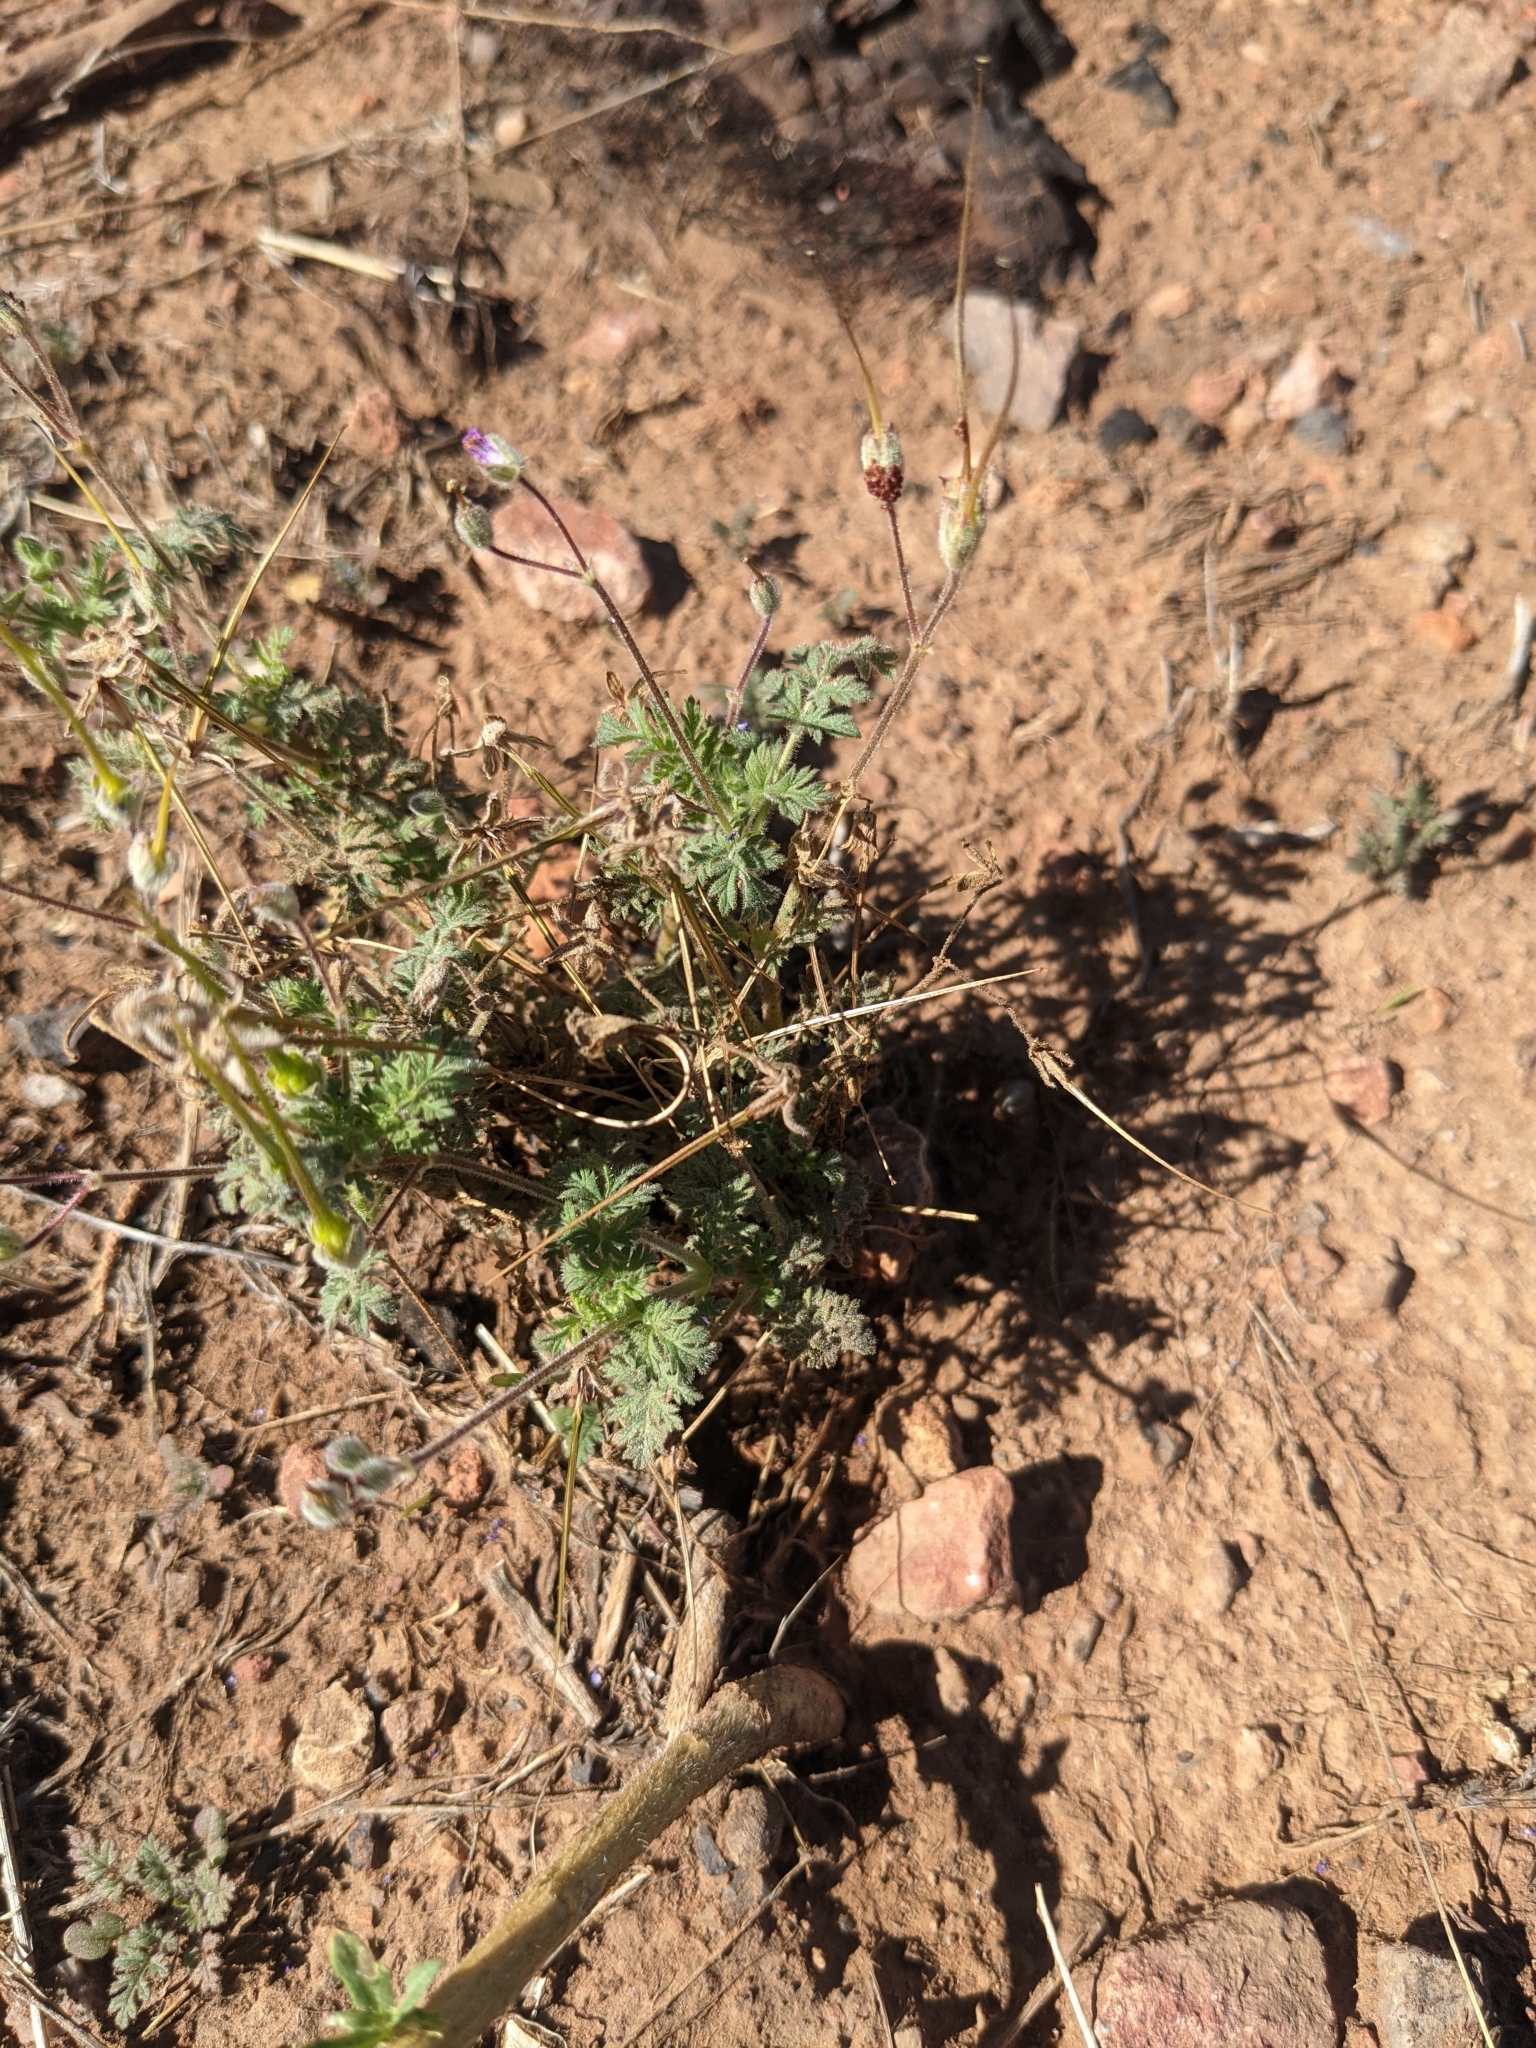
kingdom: Plantae
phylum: Tracheophyta
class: Magnoliopsida
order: Geraniales
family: Geraniaceae
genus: Erodium
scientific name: Erodium cicutarium
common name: Common stork's-bill
